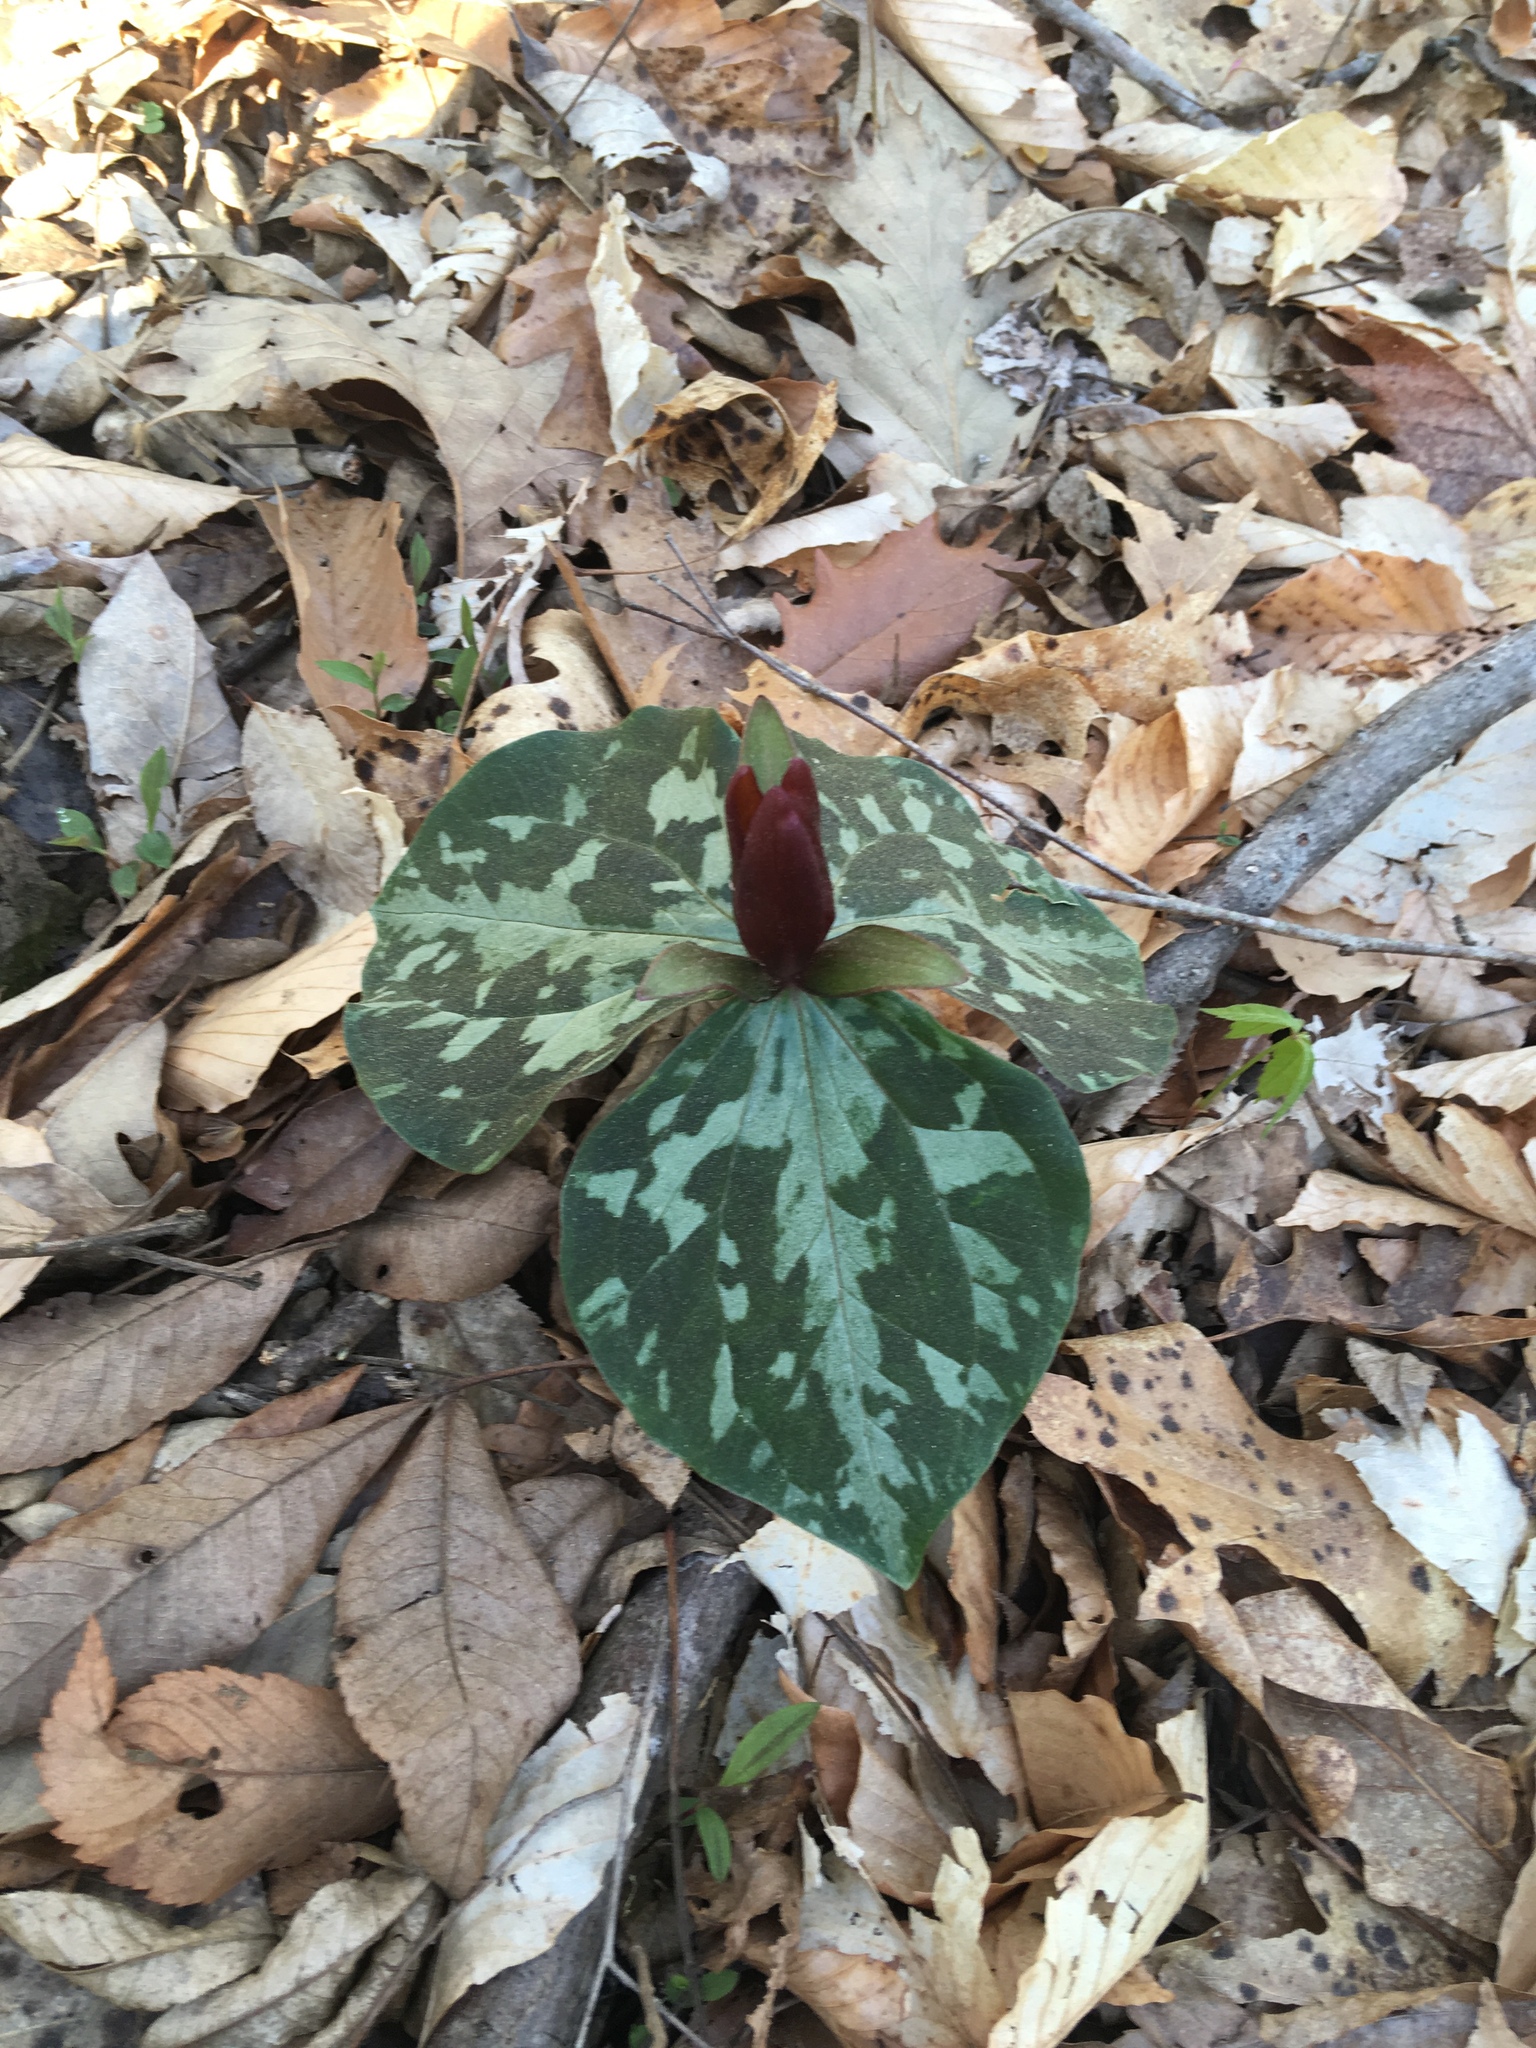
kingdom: Plantae
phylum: Tracheophyta
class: Liliopsida
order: Liliales
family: Melanthiaceae
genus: Trillium
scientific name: Trillium cuneatum
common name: Cuneate trillium
